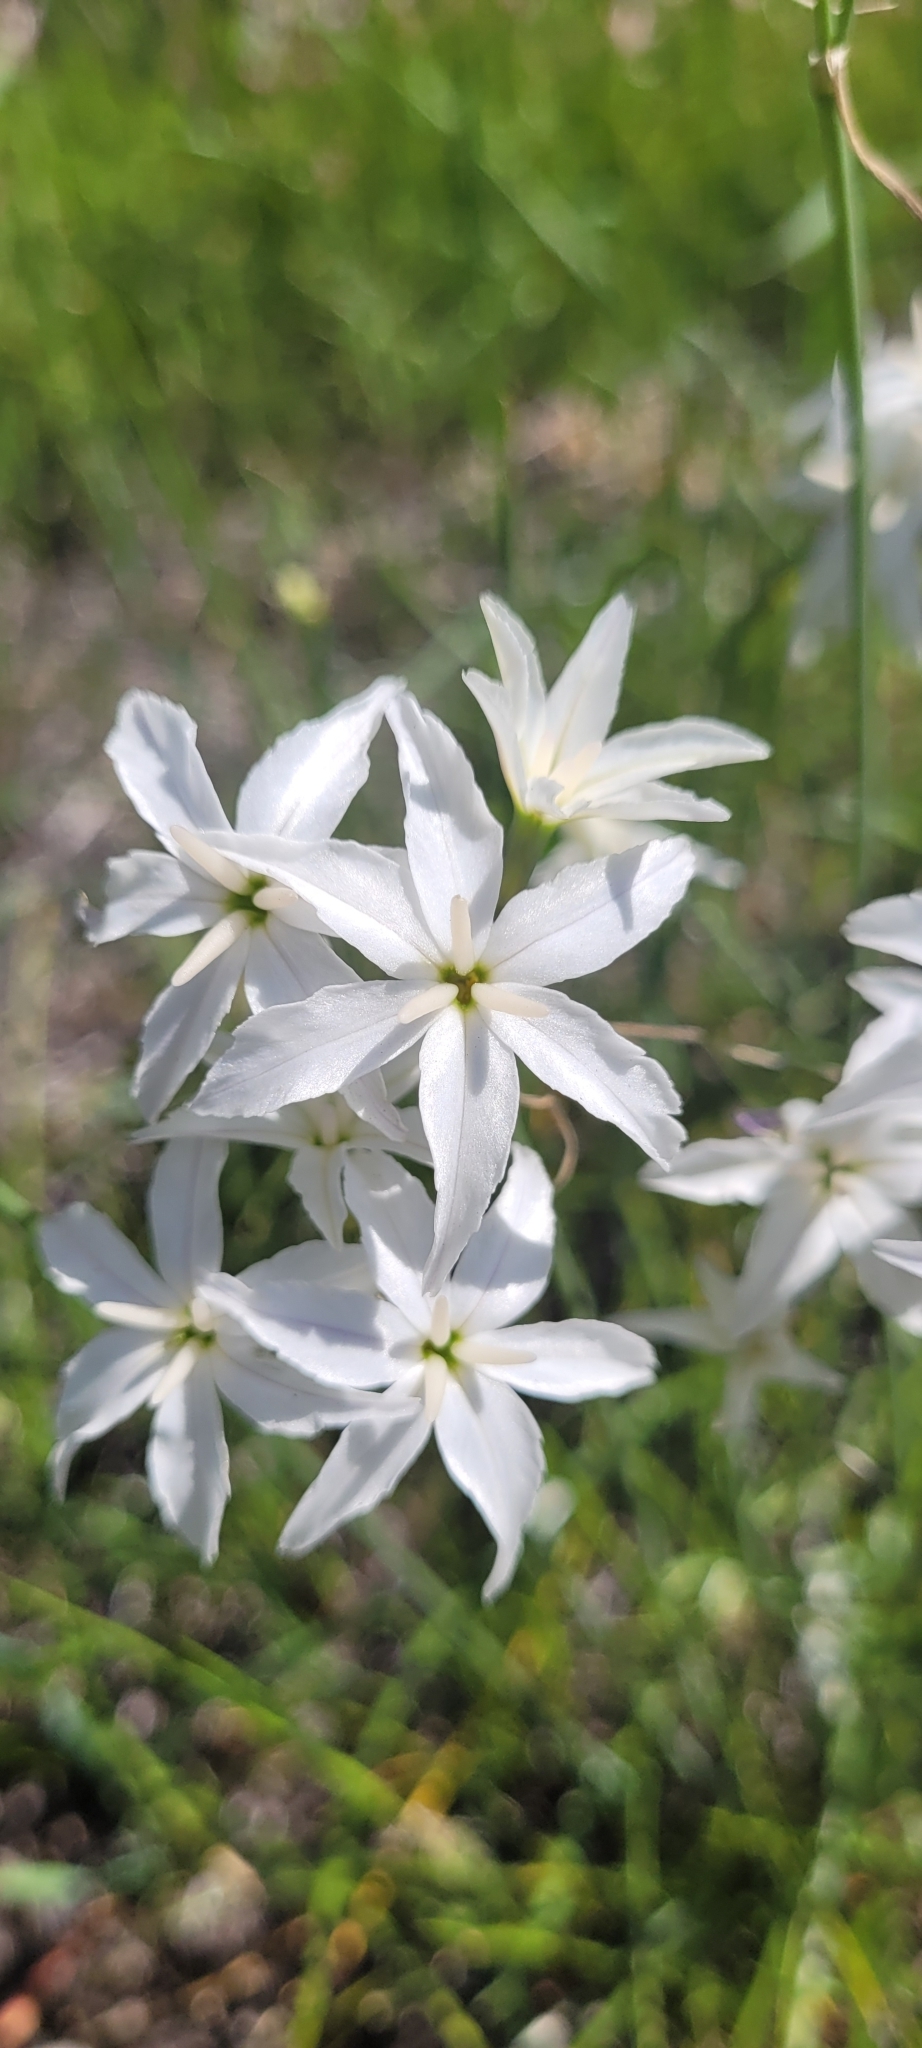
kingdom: Plantae
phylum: Tracheophyta
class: Liliopsida
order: Asparagales
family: Amaryllidaceae
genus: Leucocoryne
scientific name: Leucocoryne ixioides
